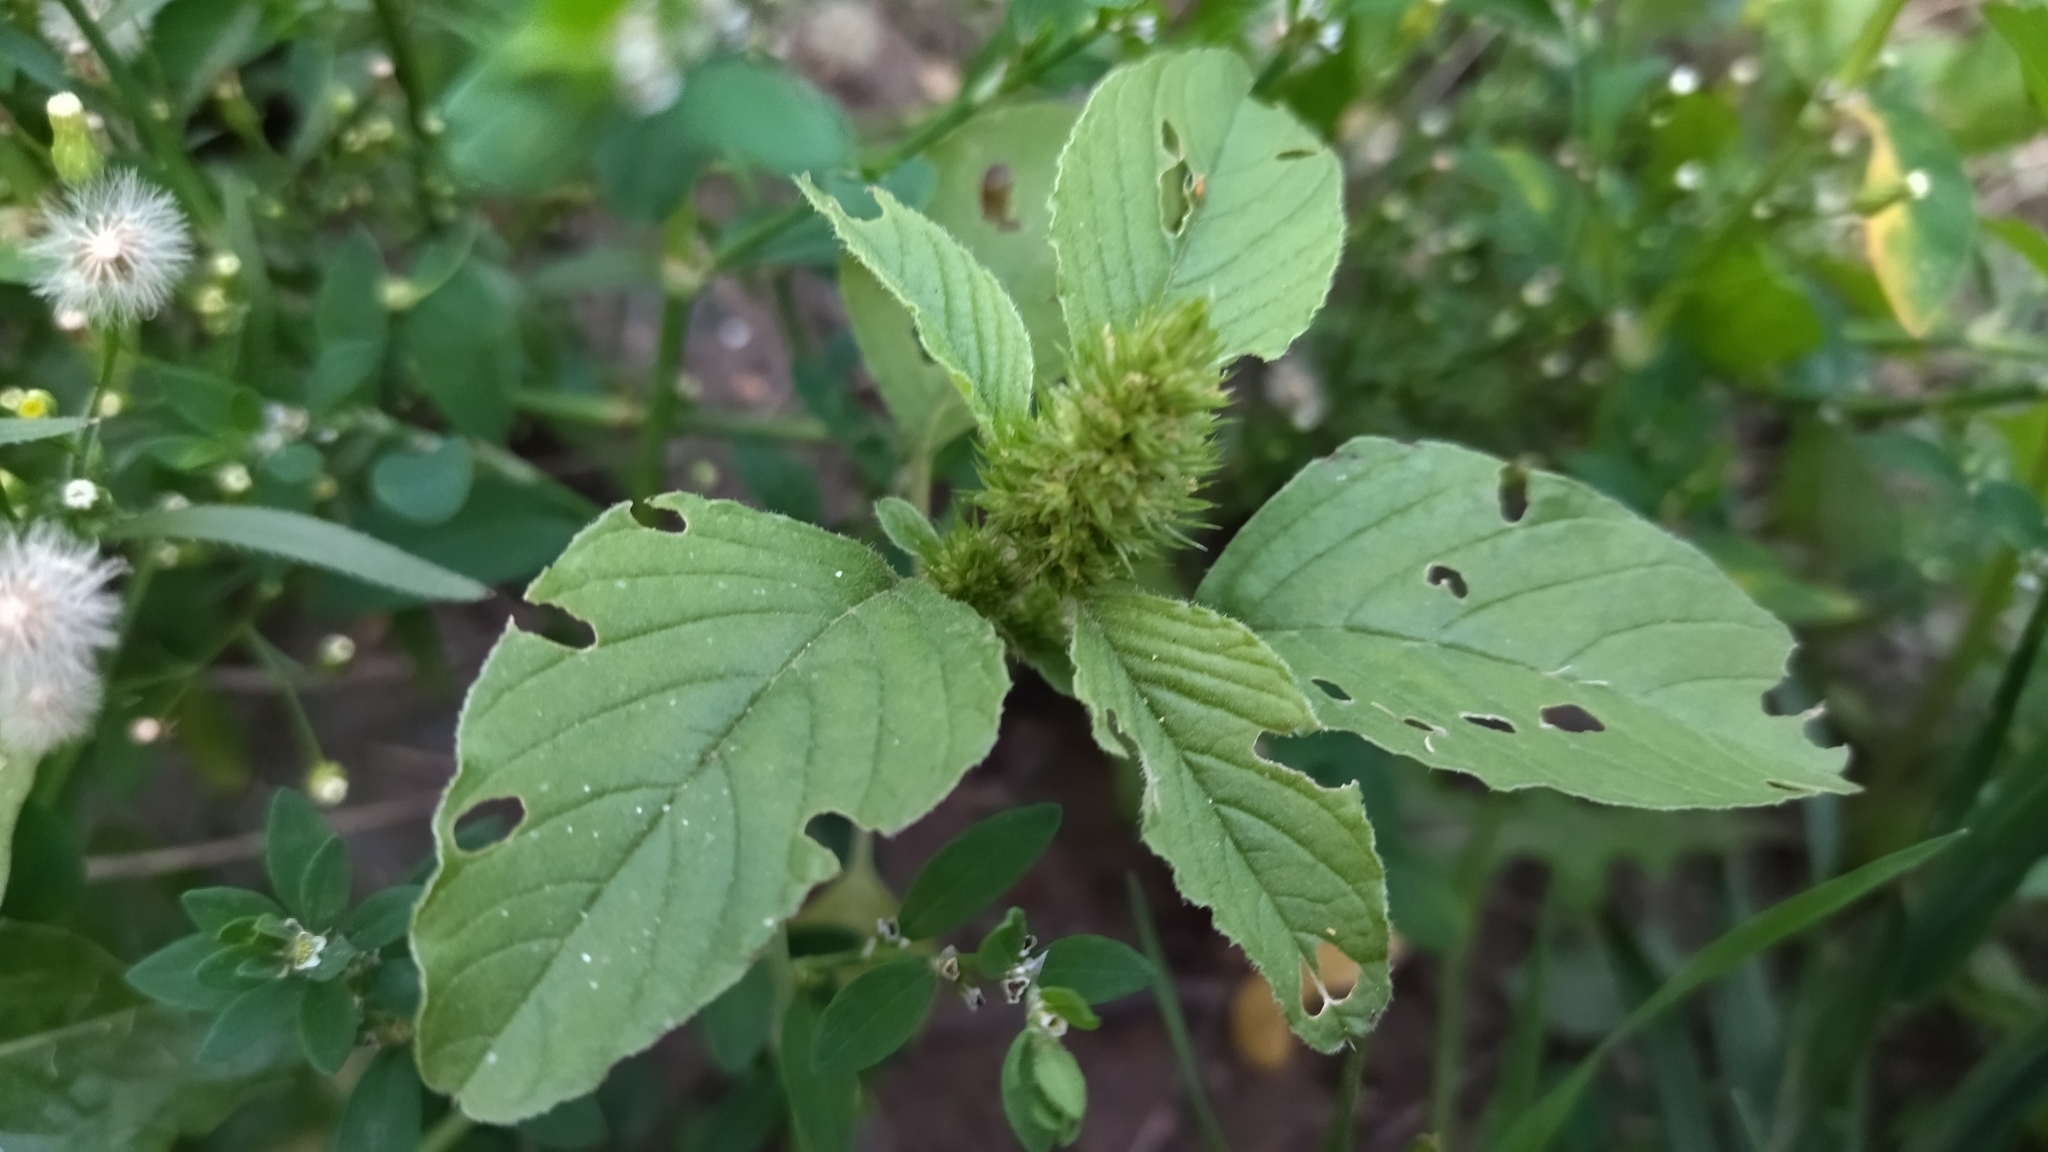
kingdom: Plantae
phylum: Tracheophyta
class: Magnoliopsida
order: Caryophyllales
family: Amaranthaceae
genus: Amaranthus
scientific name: Amaranthus retroflexus
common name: Redroot amaranth
